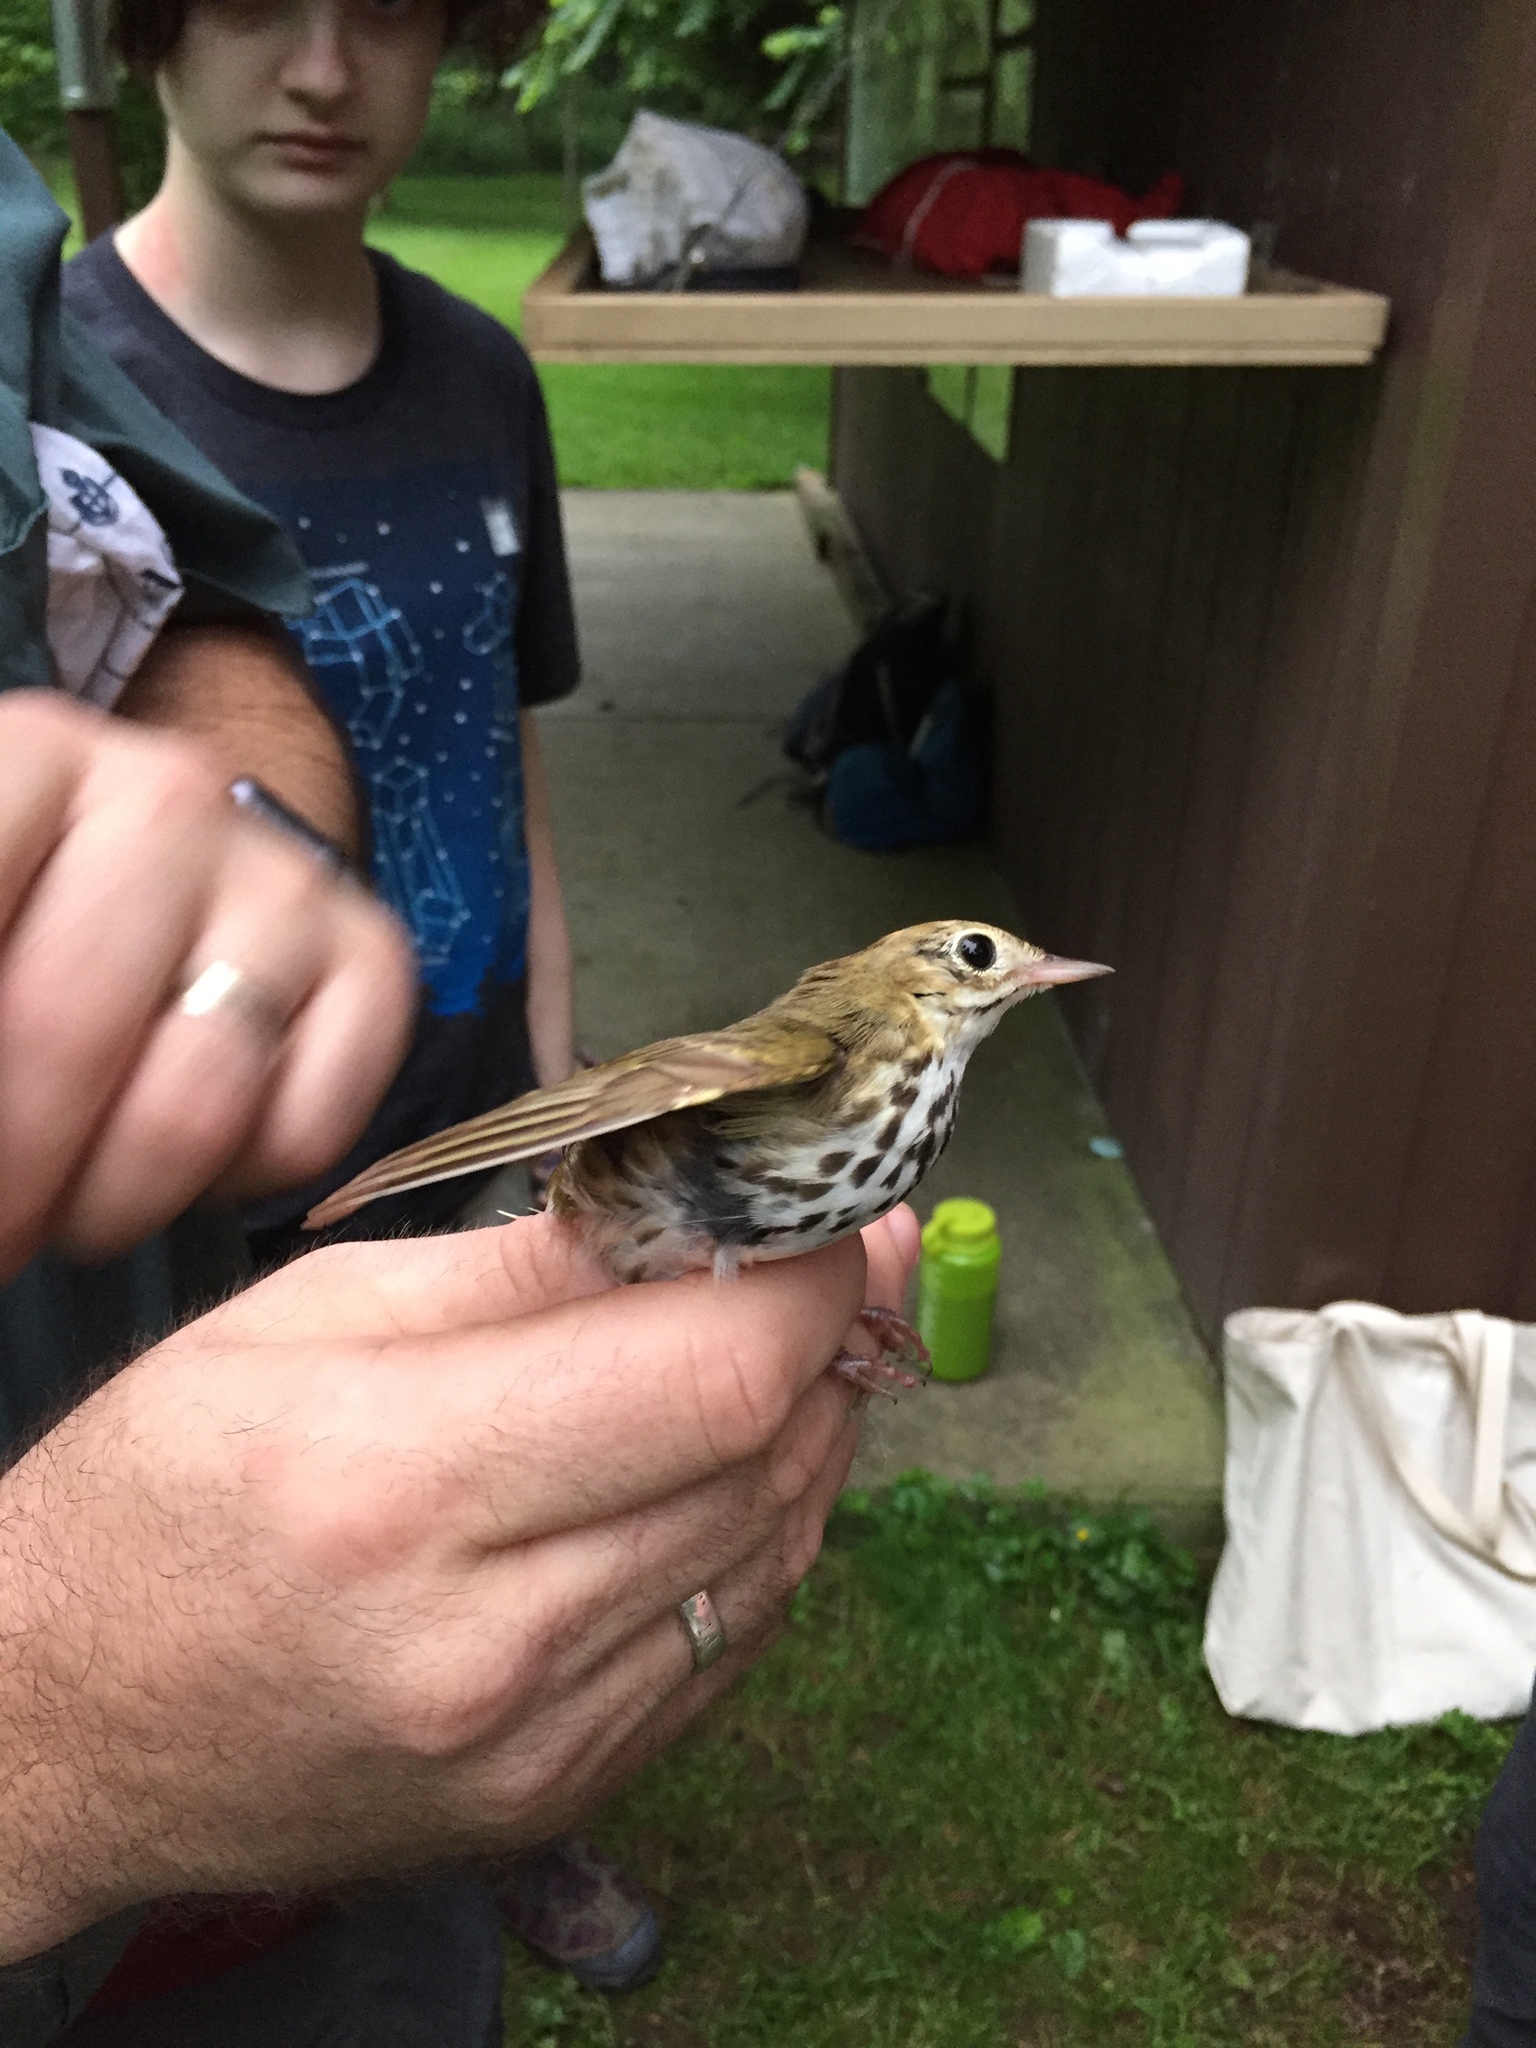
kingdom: Animalia
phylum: Chordata
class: Aves
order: Passeriformes
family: Parulidae
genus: Seiurus
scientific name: Seiurus aurocapilla
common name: Ovenbird
